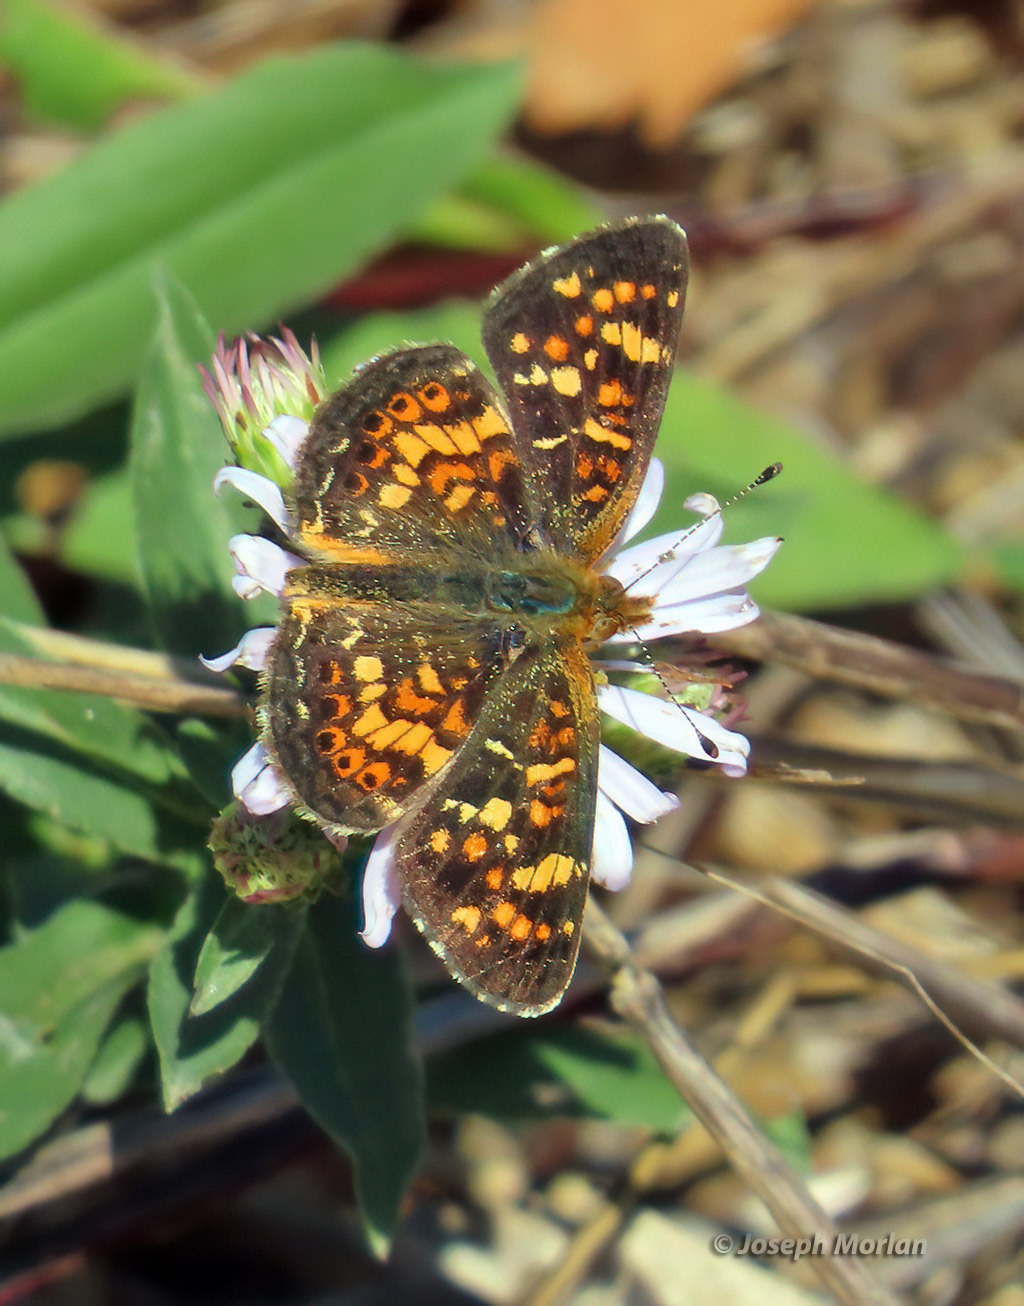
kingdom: Animalia
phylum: Arthropoda
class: Insecta
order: Lepidoptera
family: Nymphalidae
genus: Phyciodes
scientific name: Phyciodes tharos
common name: Pearl crescent
